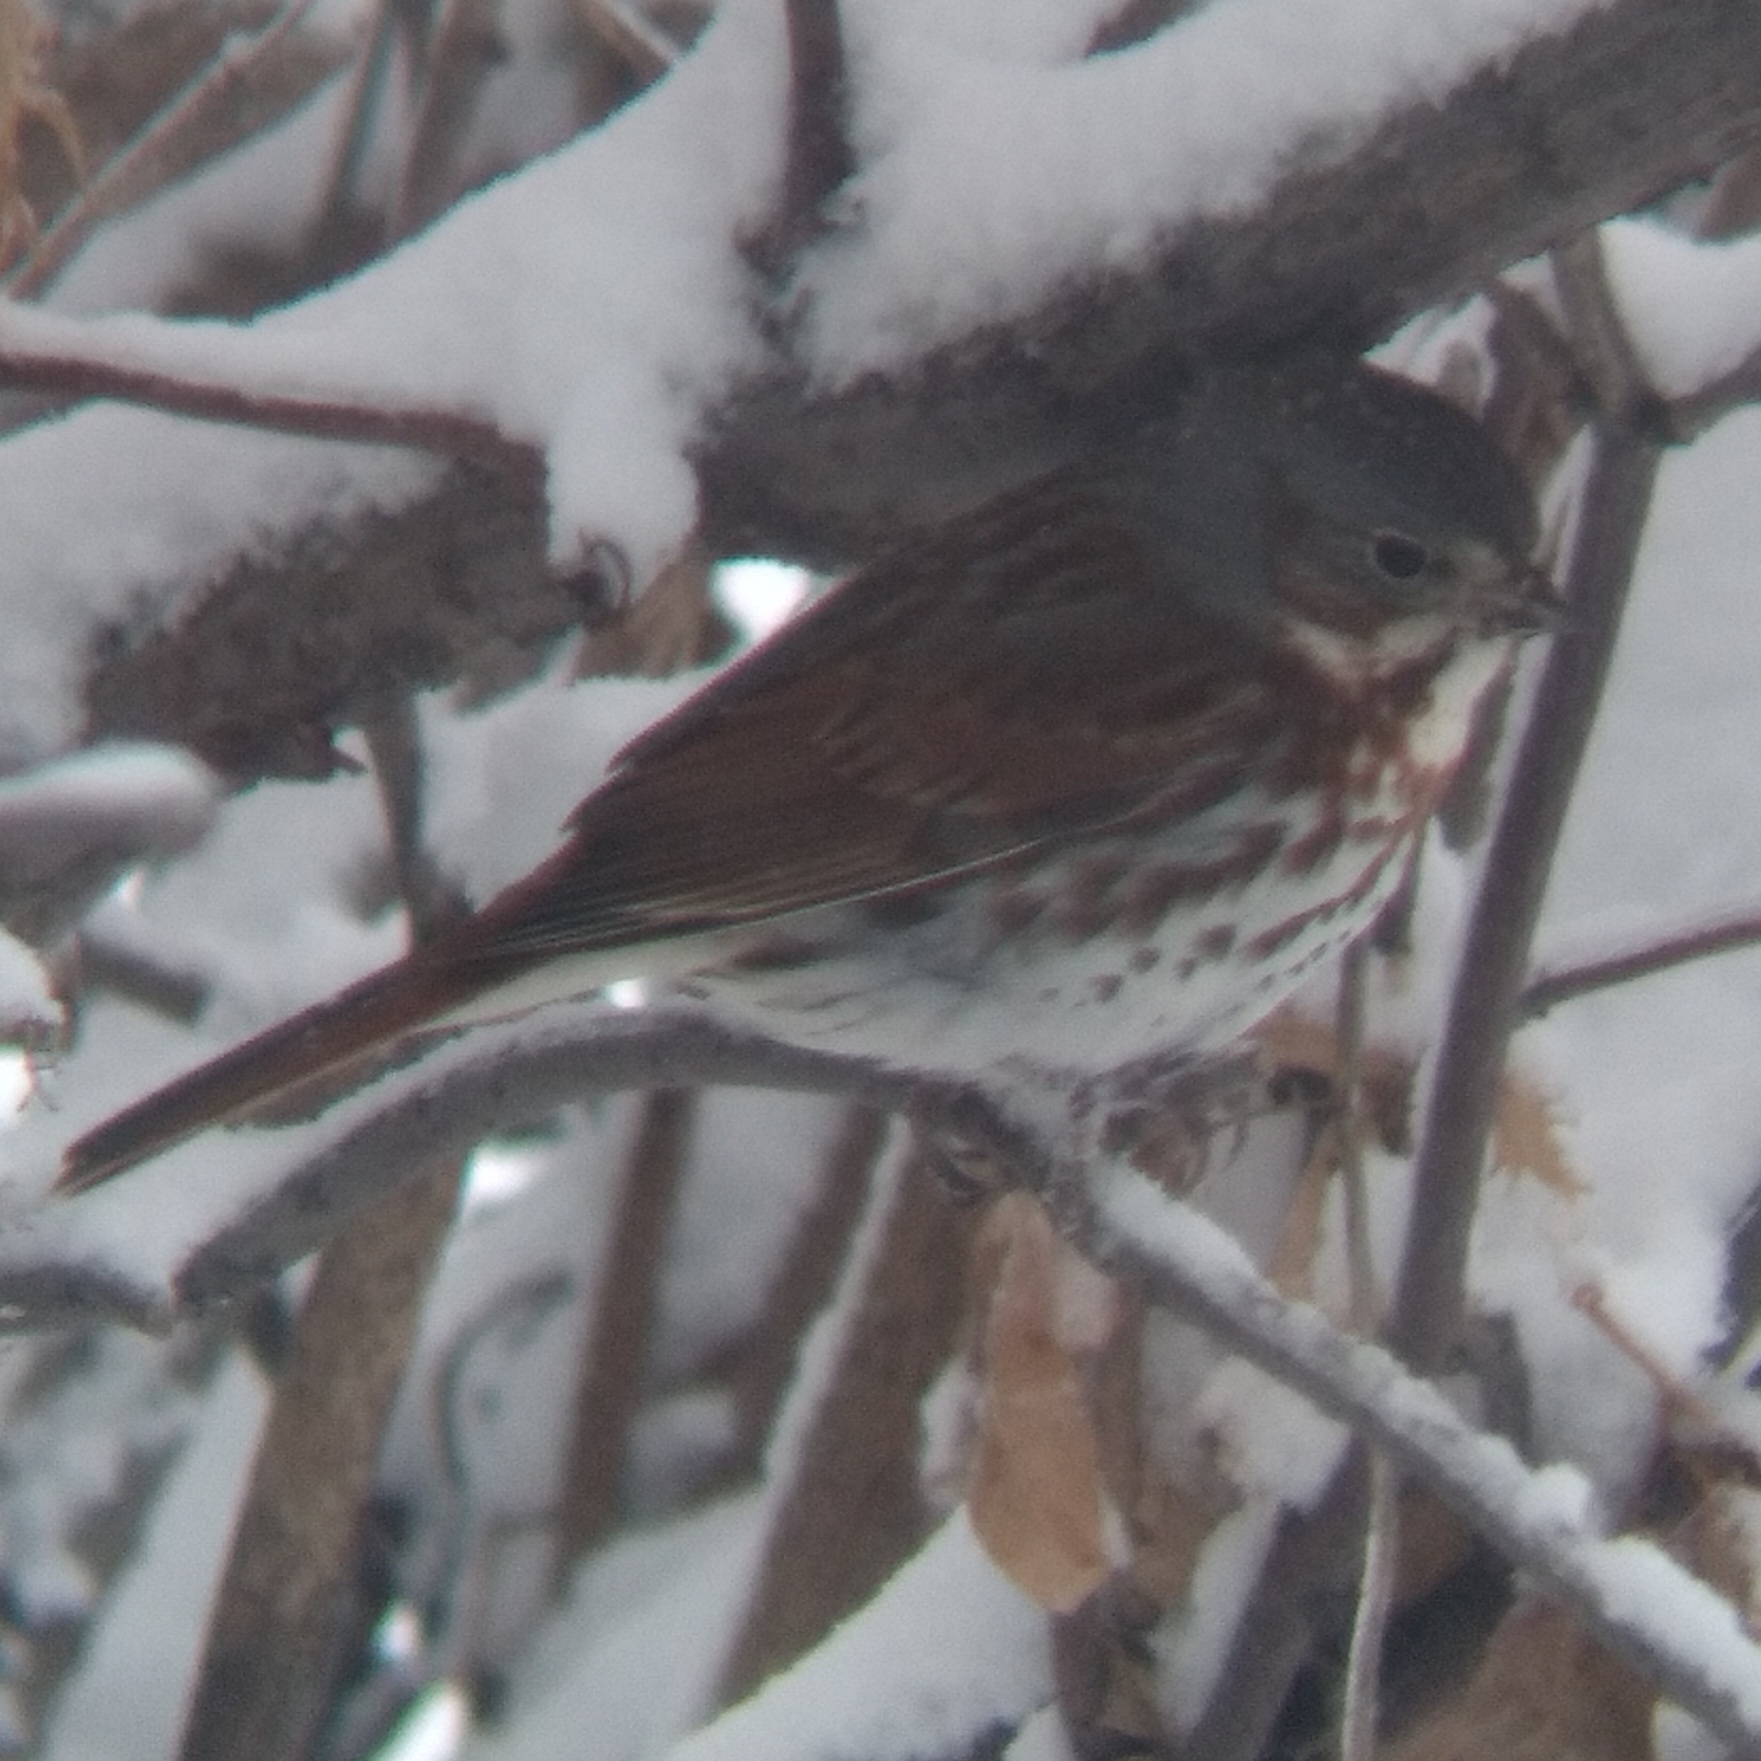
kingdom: Animalia
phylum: Chordata
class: Aves
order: Passeriformes
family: Passerellidae
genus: Passerella
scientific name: Passerella iliaca
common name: Fox sparrow
